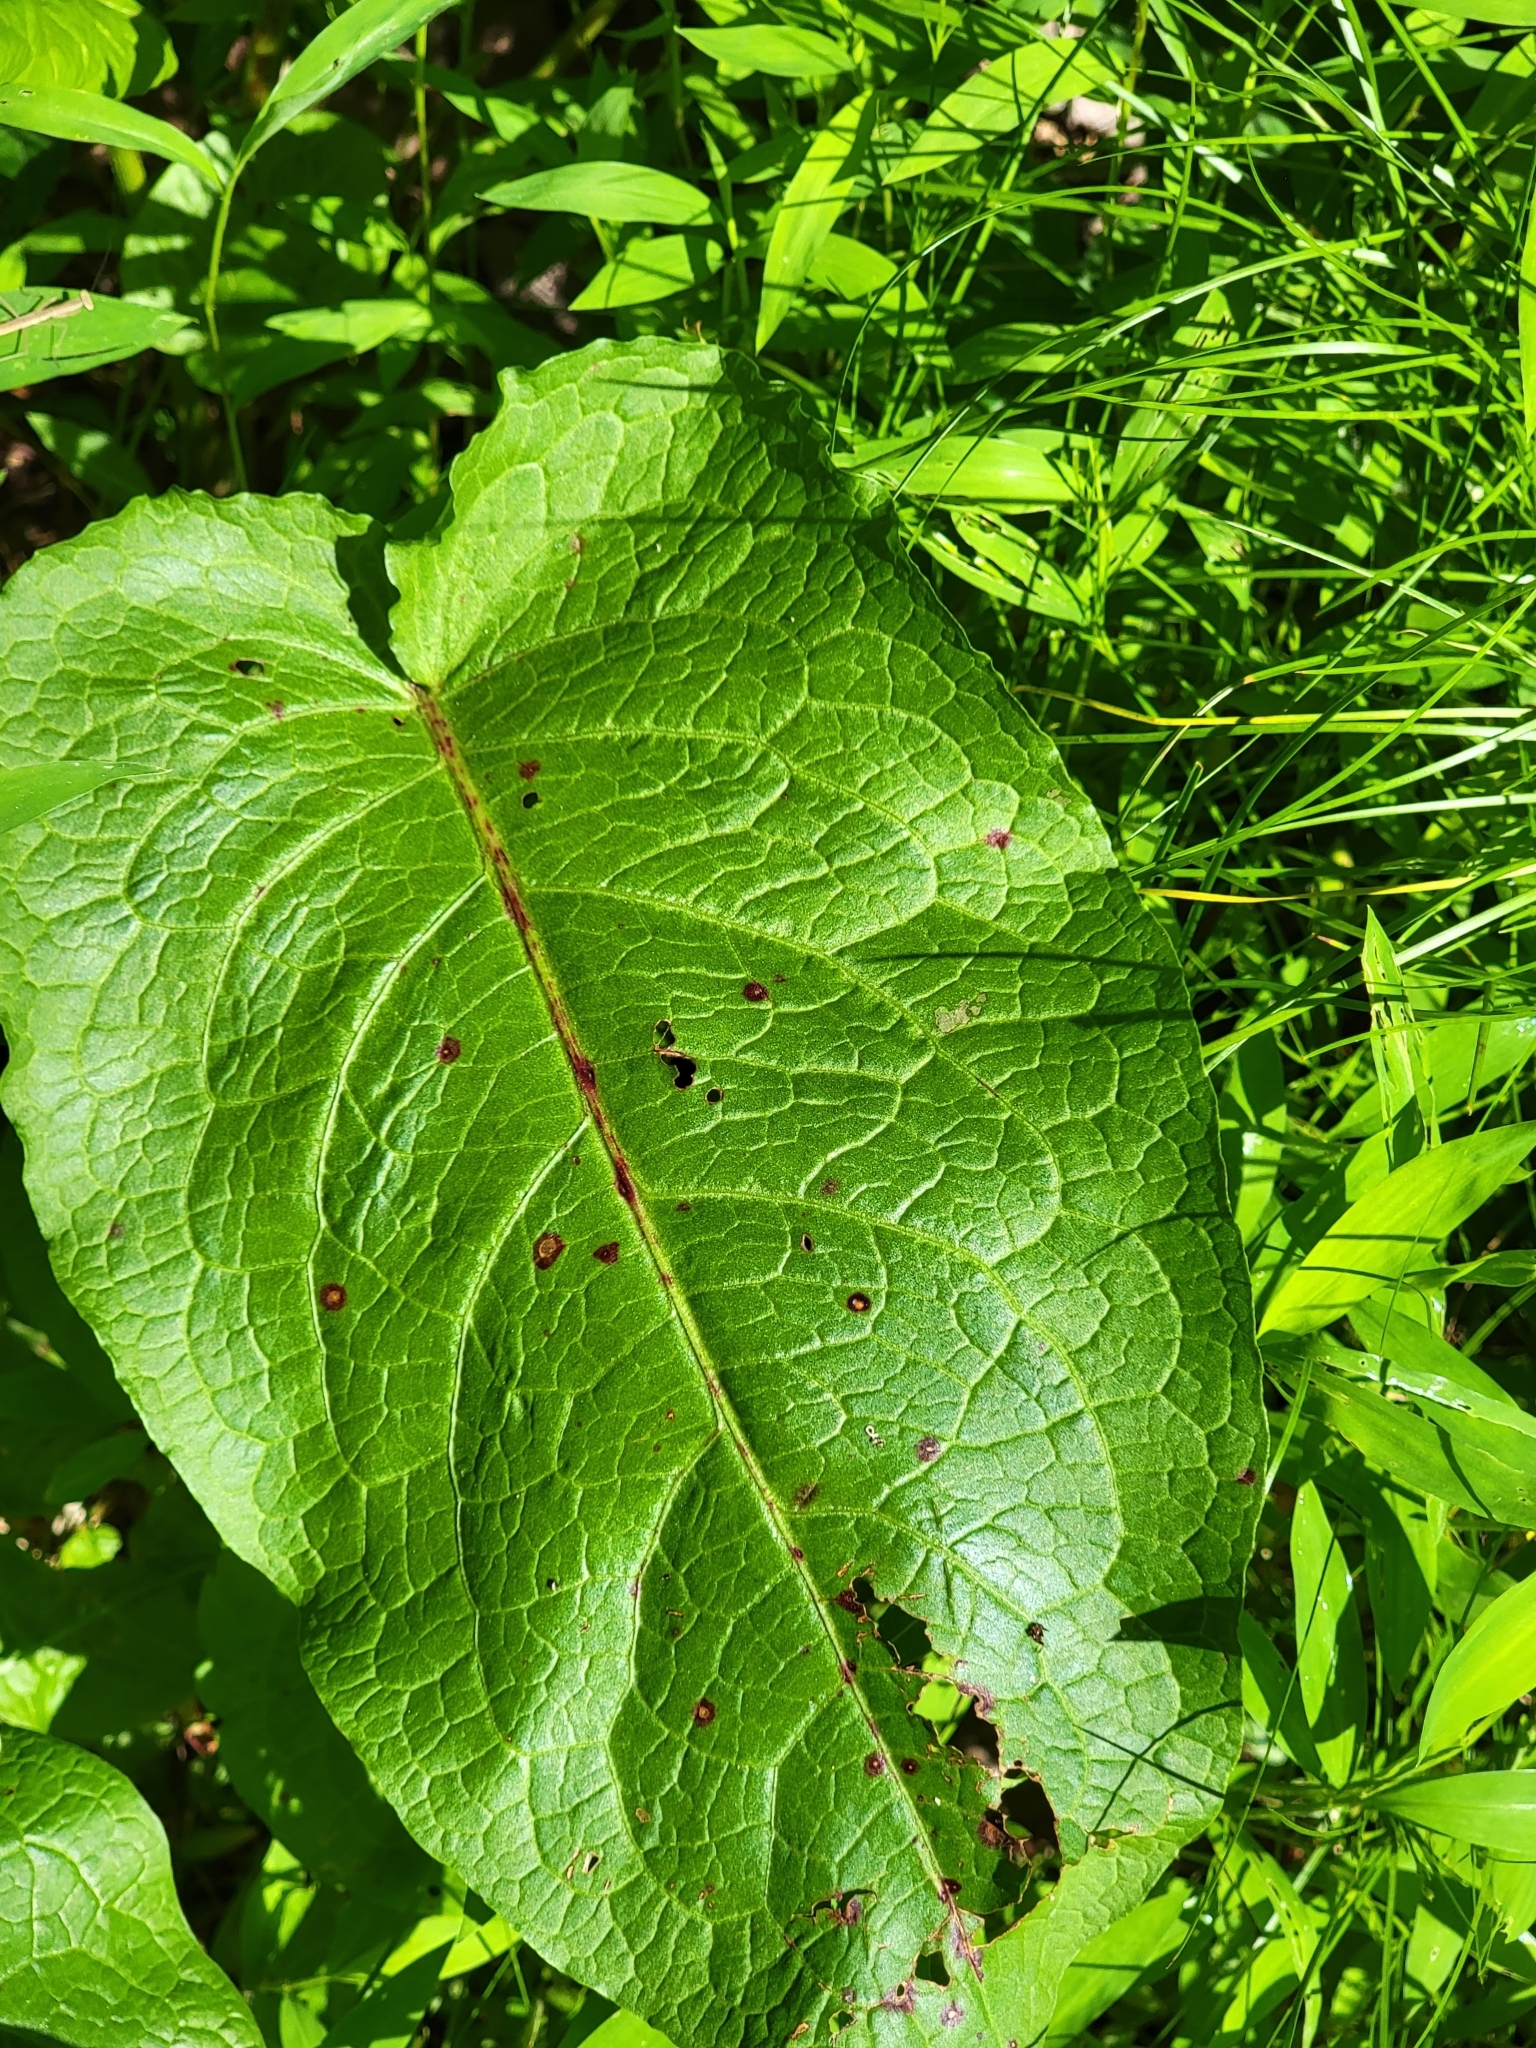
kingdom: Fungi
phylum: Ascomycota
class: Dothideomycetes
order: Mycosphaerellales
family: Mycosphaerellaceae
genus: Ramularia
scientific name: Ramularia rubella
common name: Red dock spot
